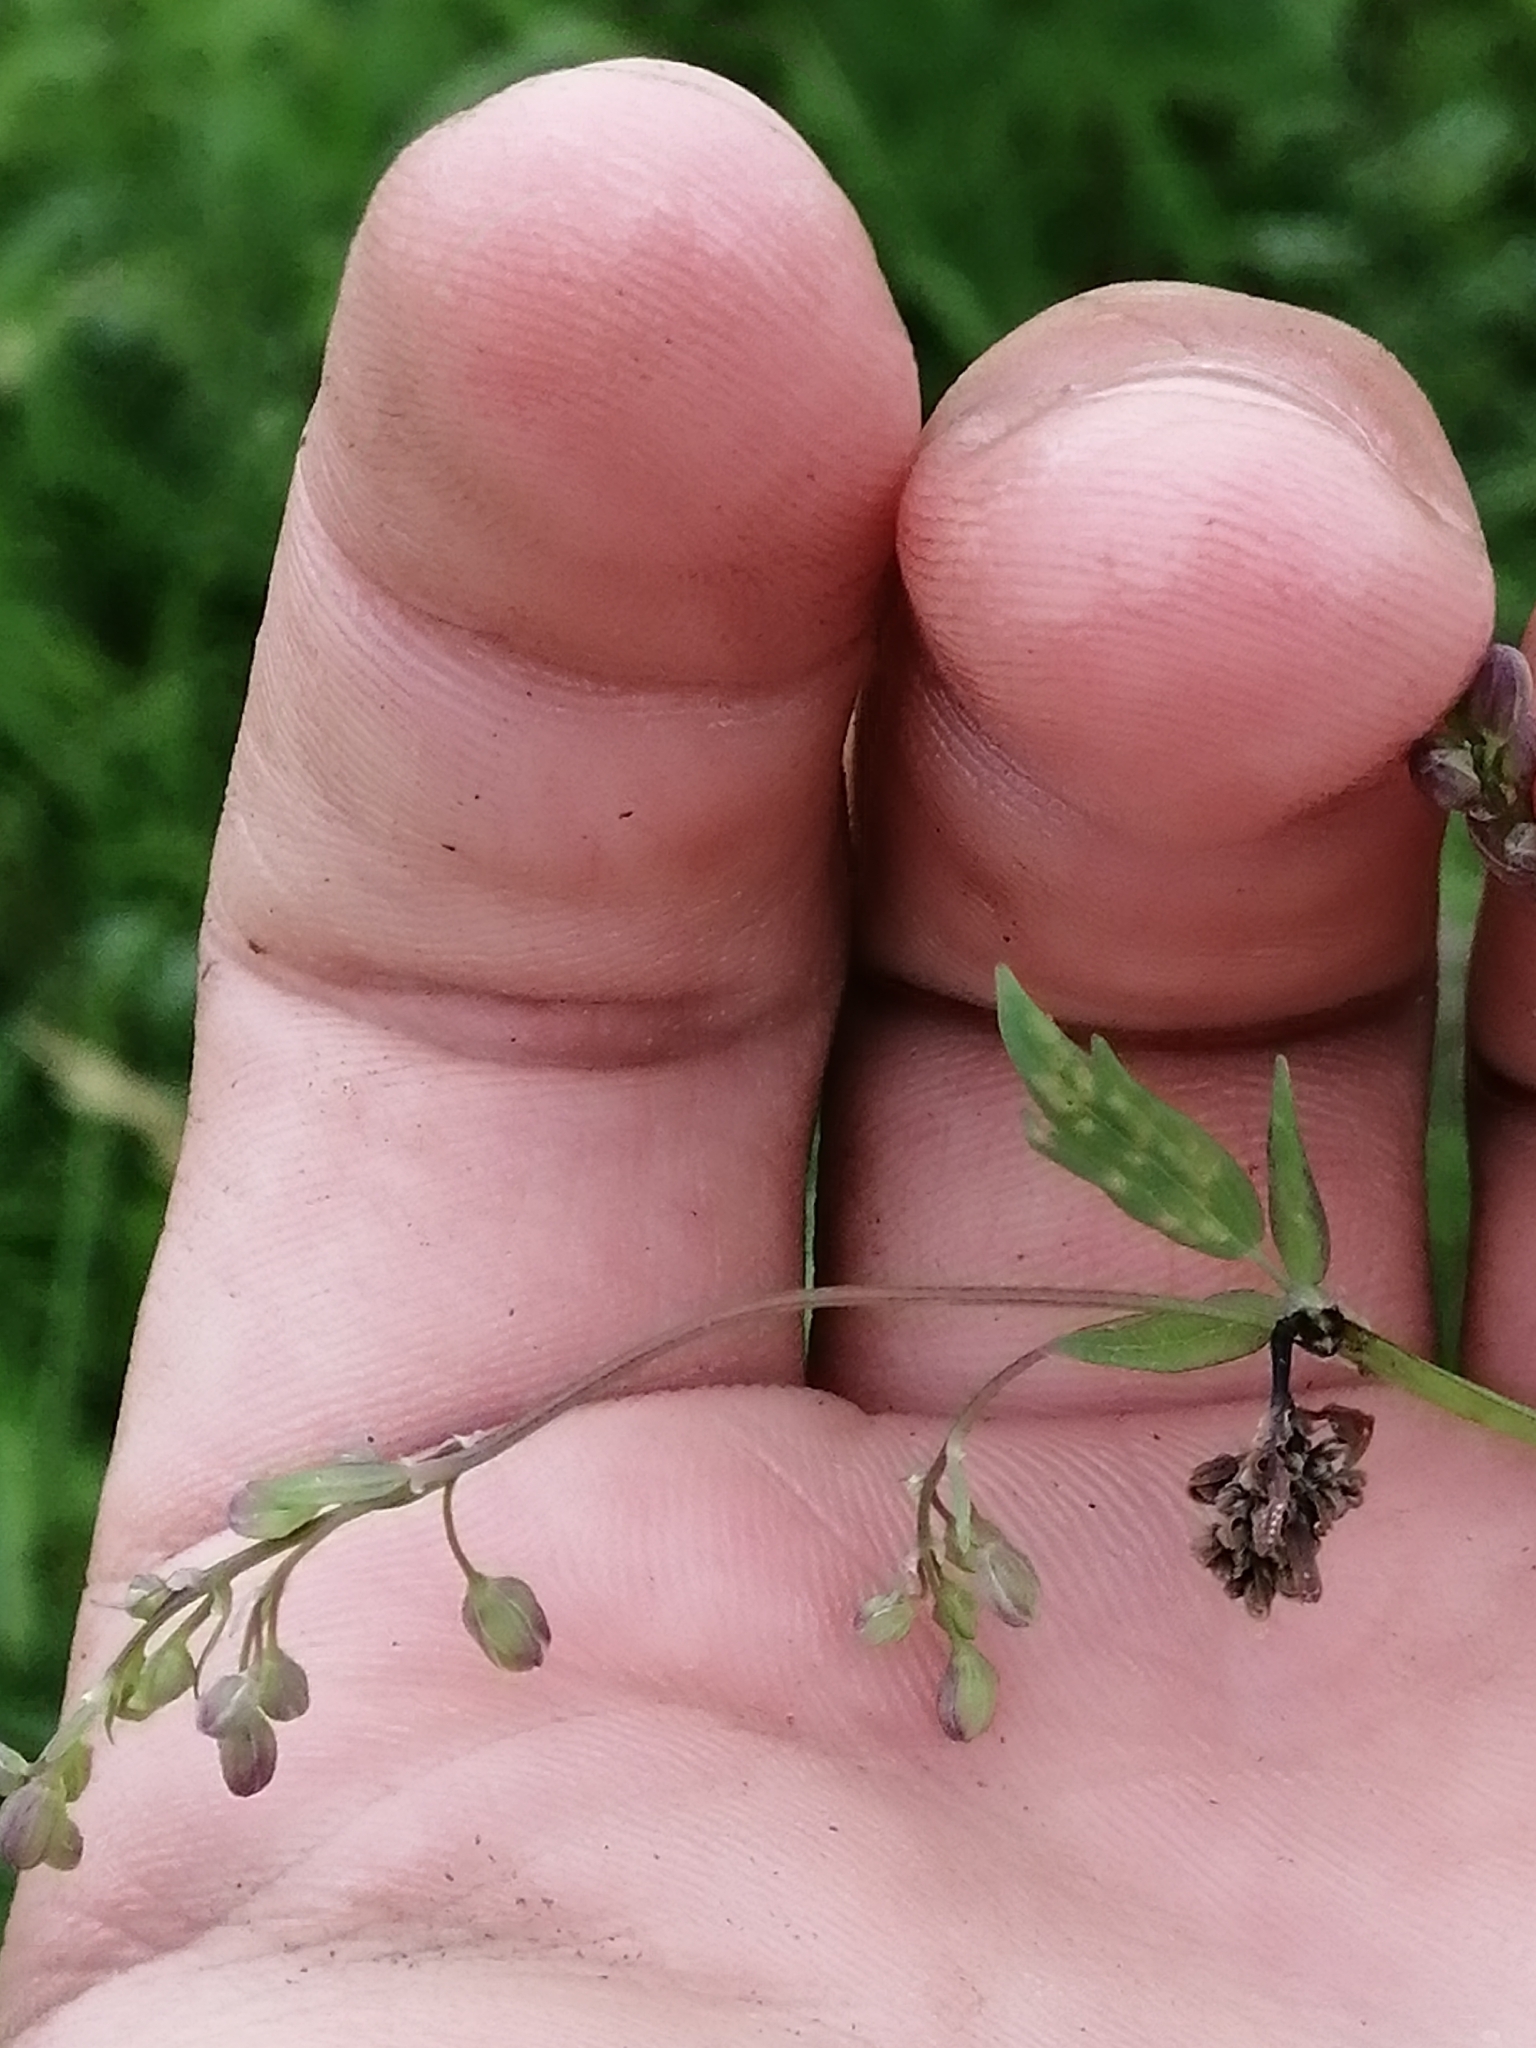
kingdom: Plantae
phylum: Tracheophyta
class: Magnoliopsida
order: Ranunculales
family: Ranunculaceae
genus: Thalictrum
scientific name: Thalictrum simplex
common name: Small meadow-rue
